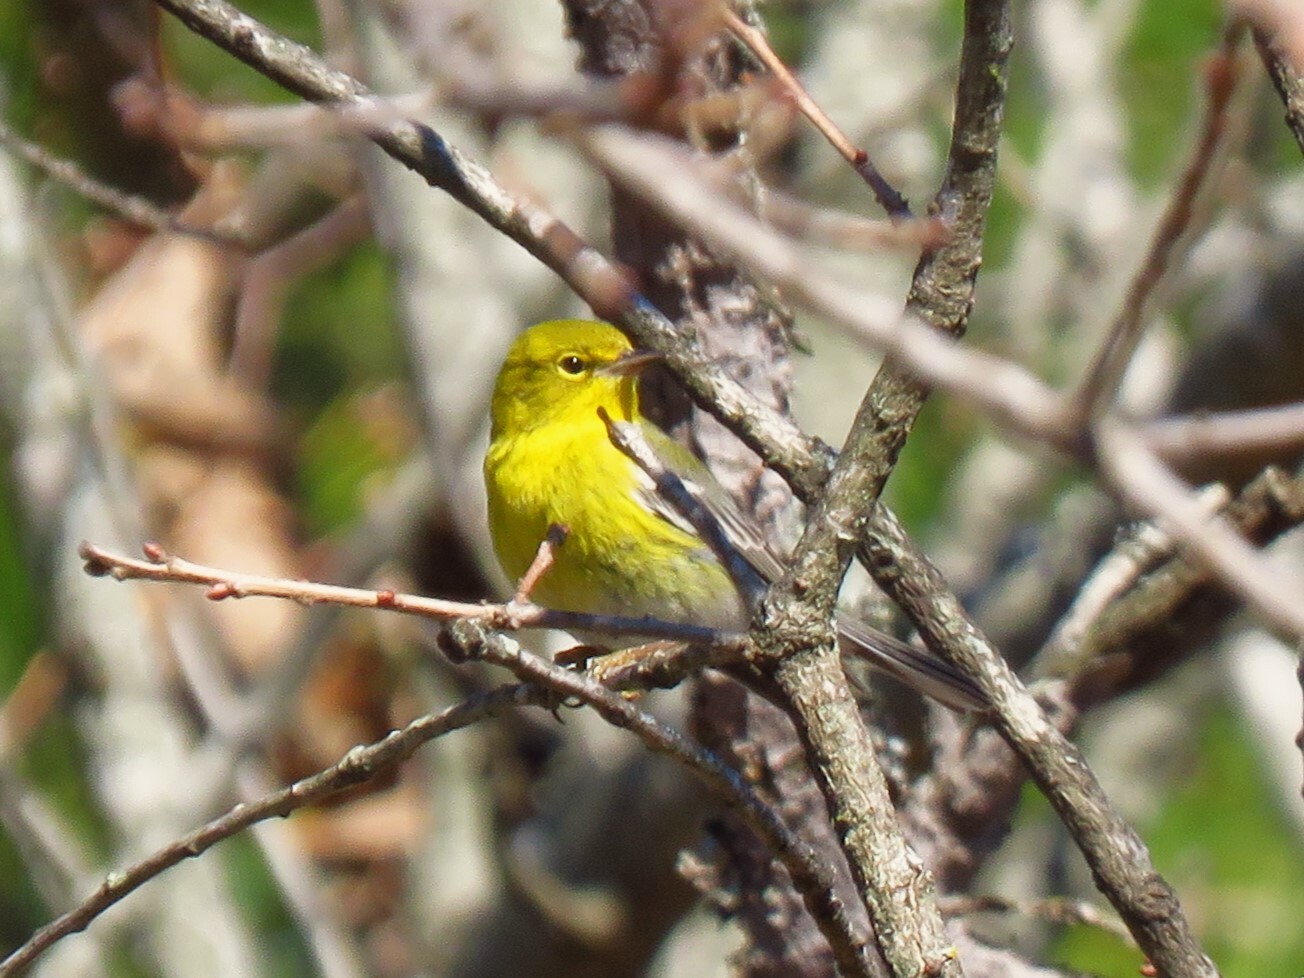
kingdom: Animalia
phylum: Chordata
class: Aves
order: Passeriformes
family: Parulidae
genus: Setophaga
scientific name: Setophaga pinus
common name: Pine warbler
